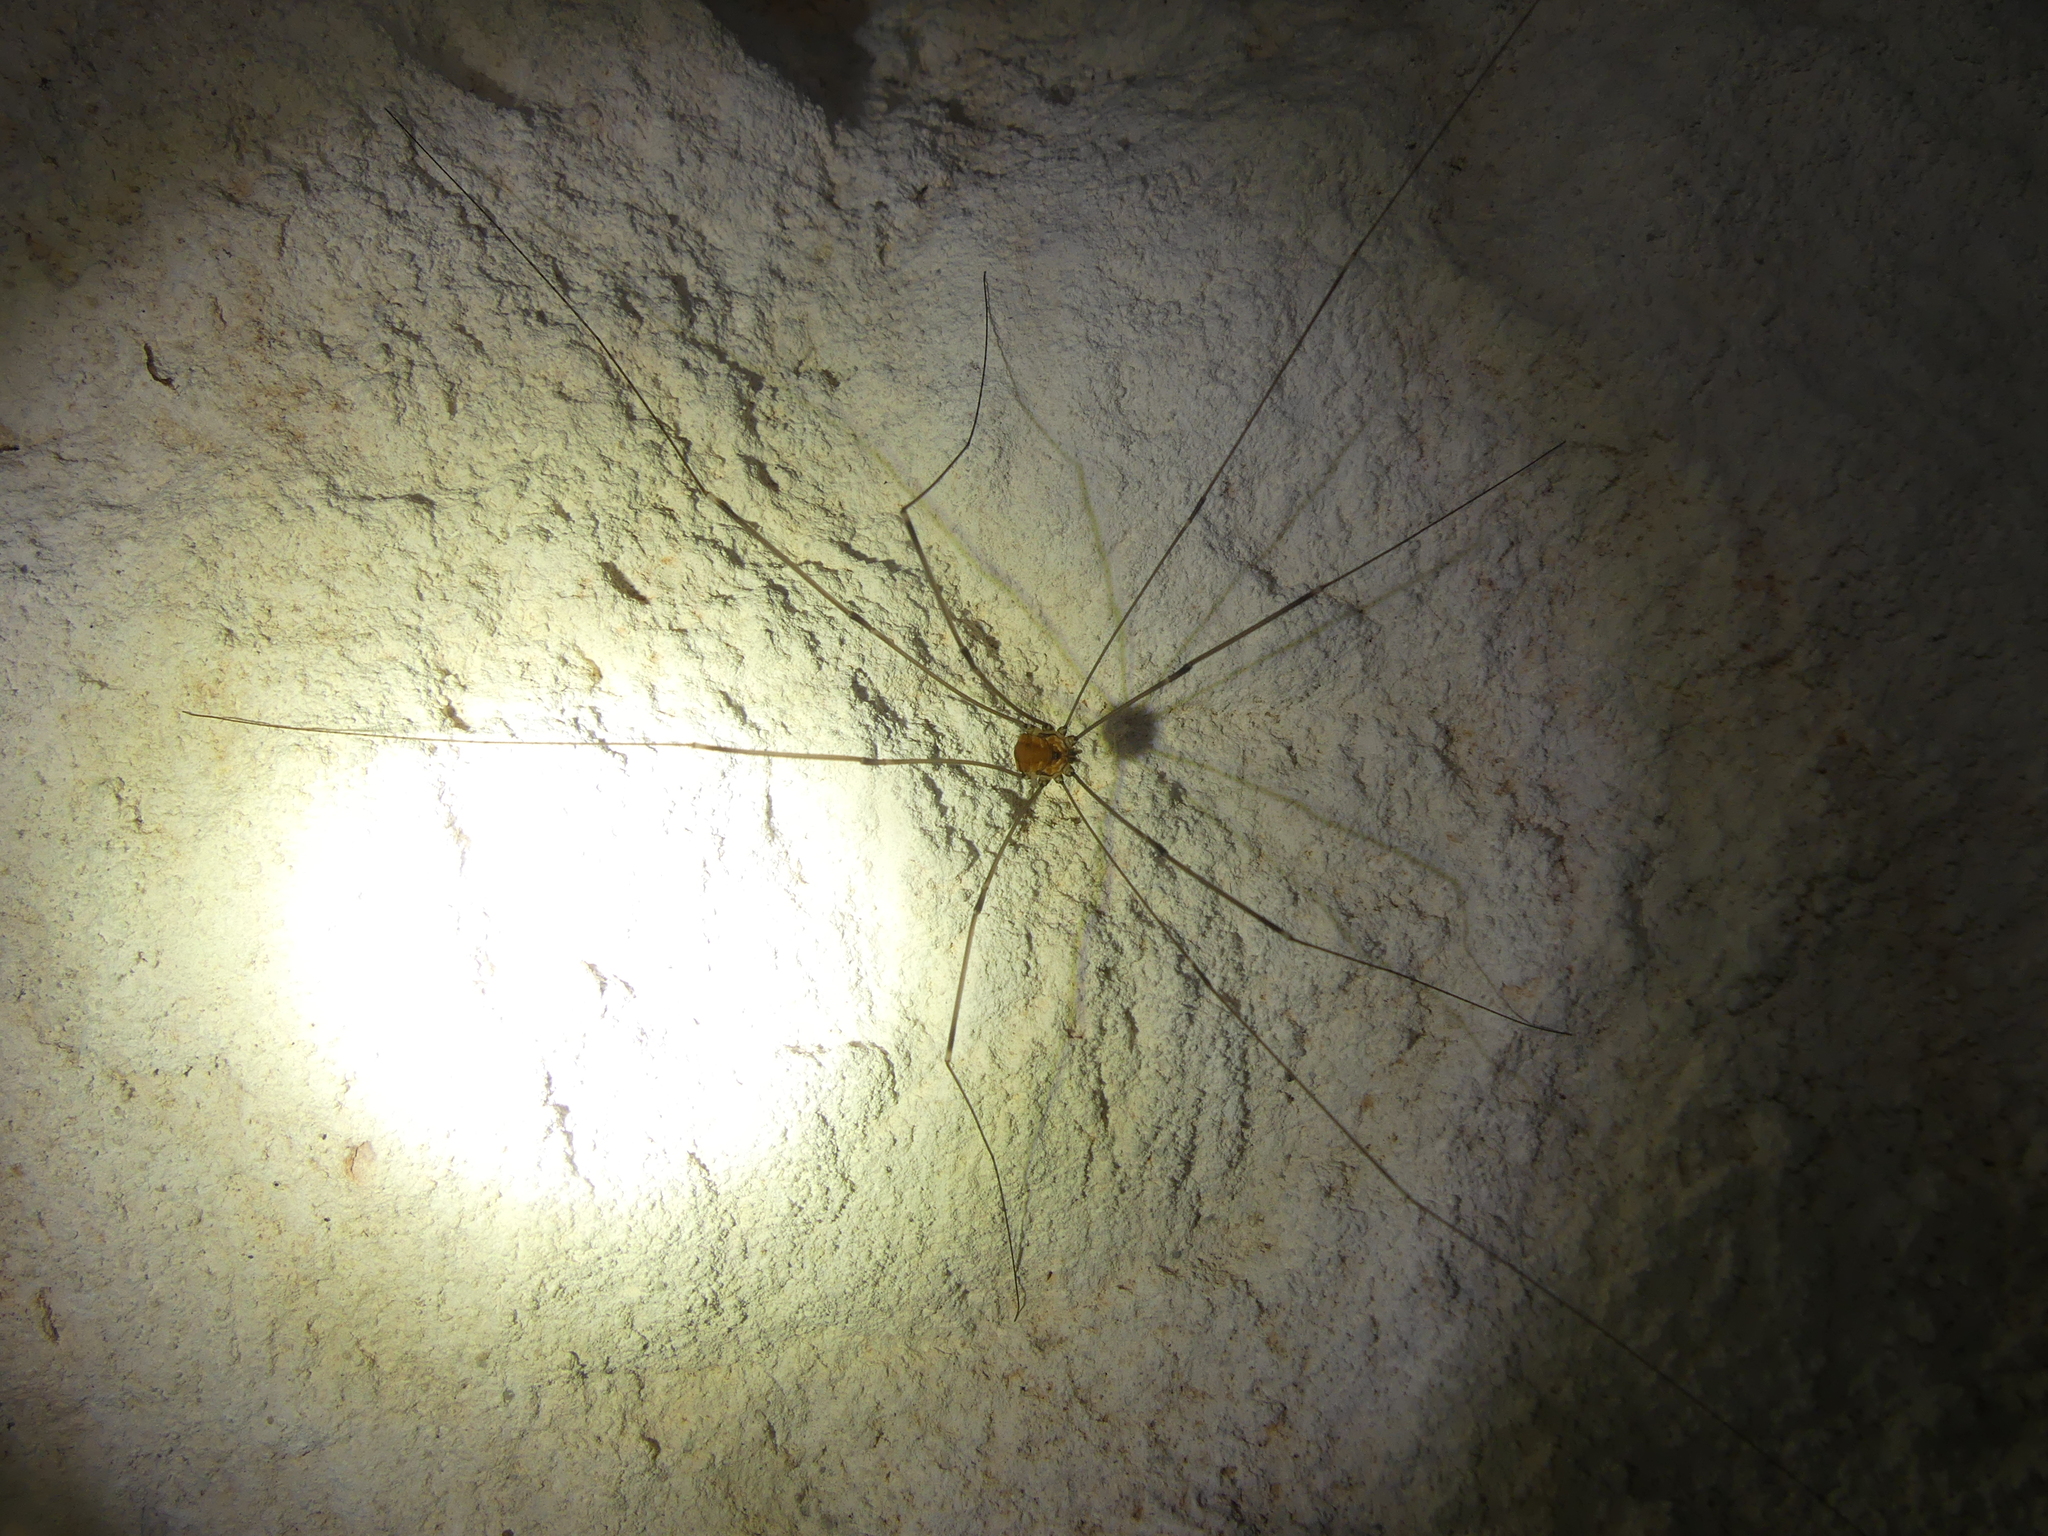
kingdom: Animalia
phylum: Arthropoda
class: Arachnida
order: Opiliones
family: Sclerosomatidae
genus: Leiobunum
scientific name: Leiobunum limbatum
